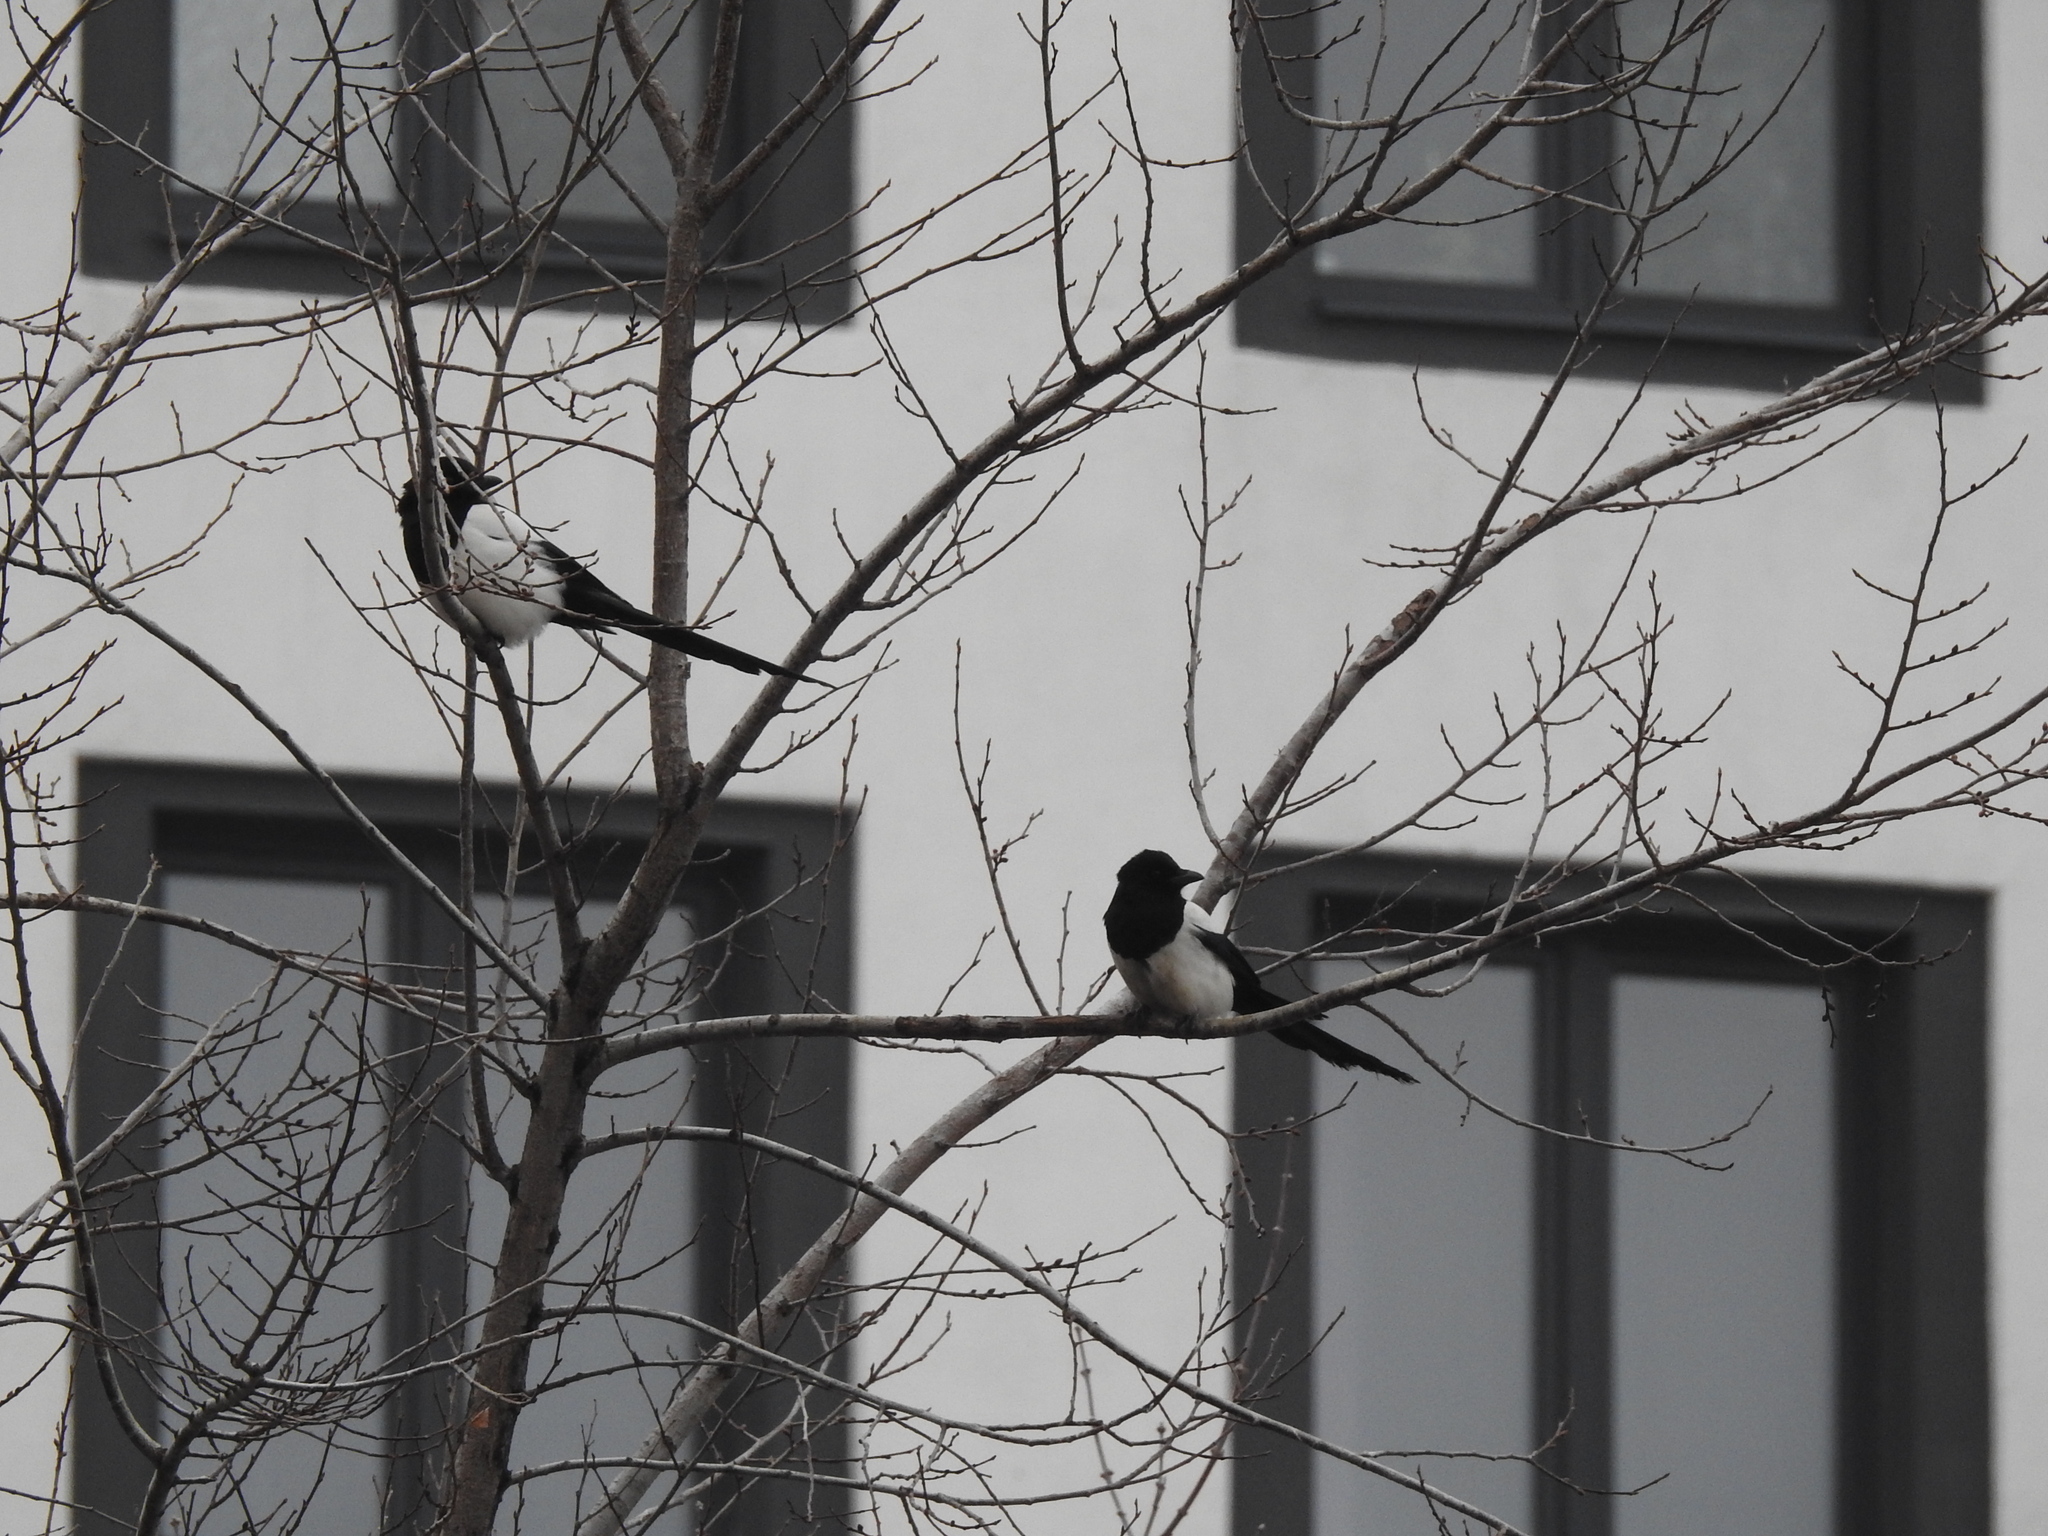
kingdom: Animalia
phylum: Chordata
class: Aves
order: Passeriformes
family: Corvidae
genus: Pica
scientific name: Pica pica
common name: Eurasian magpie
